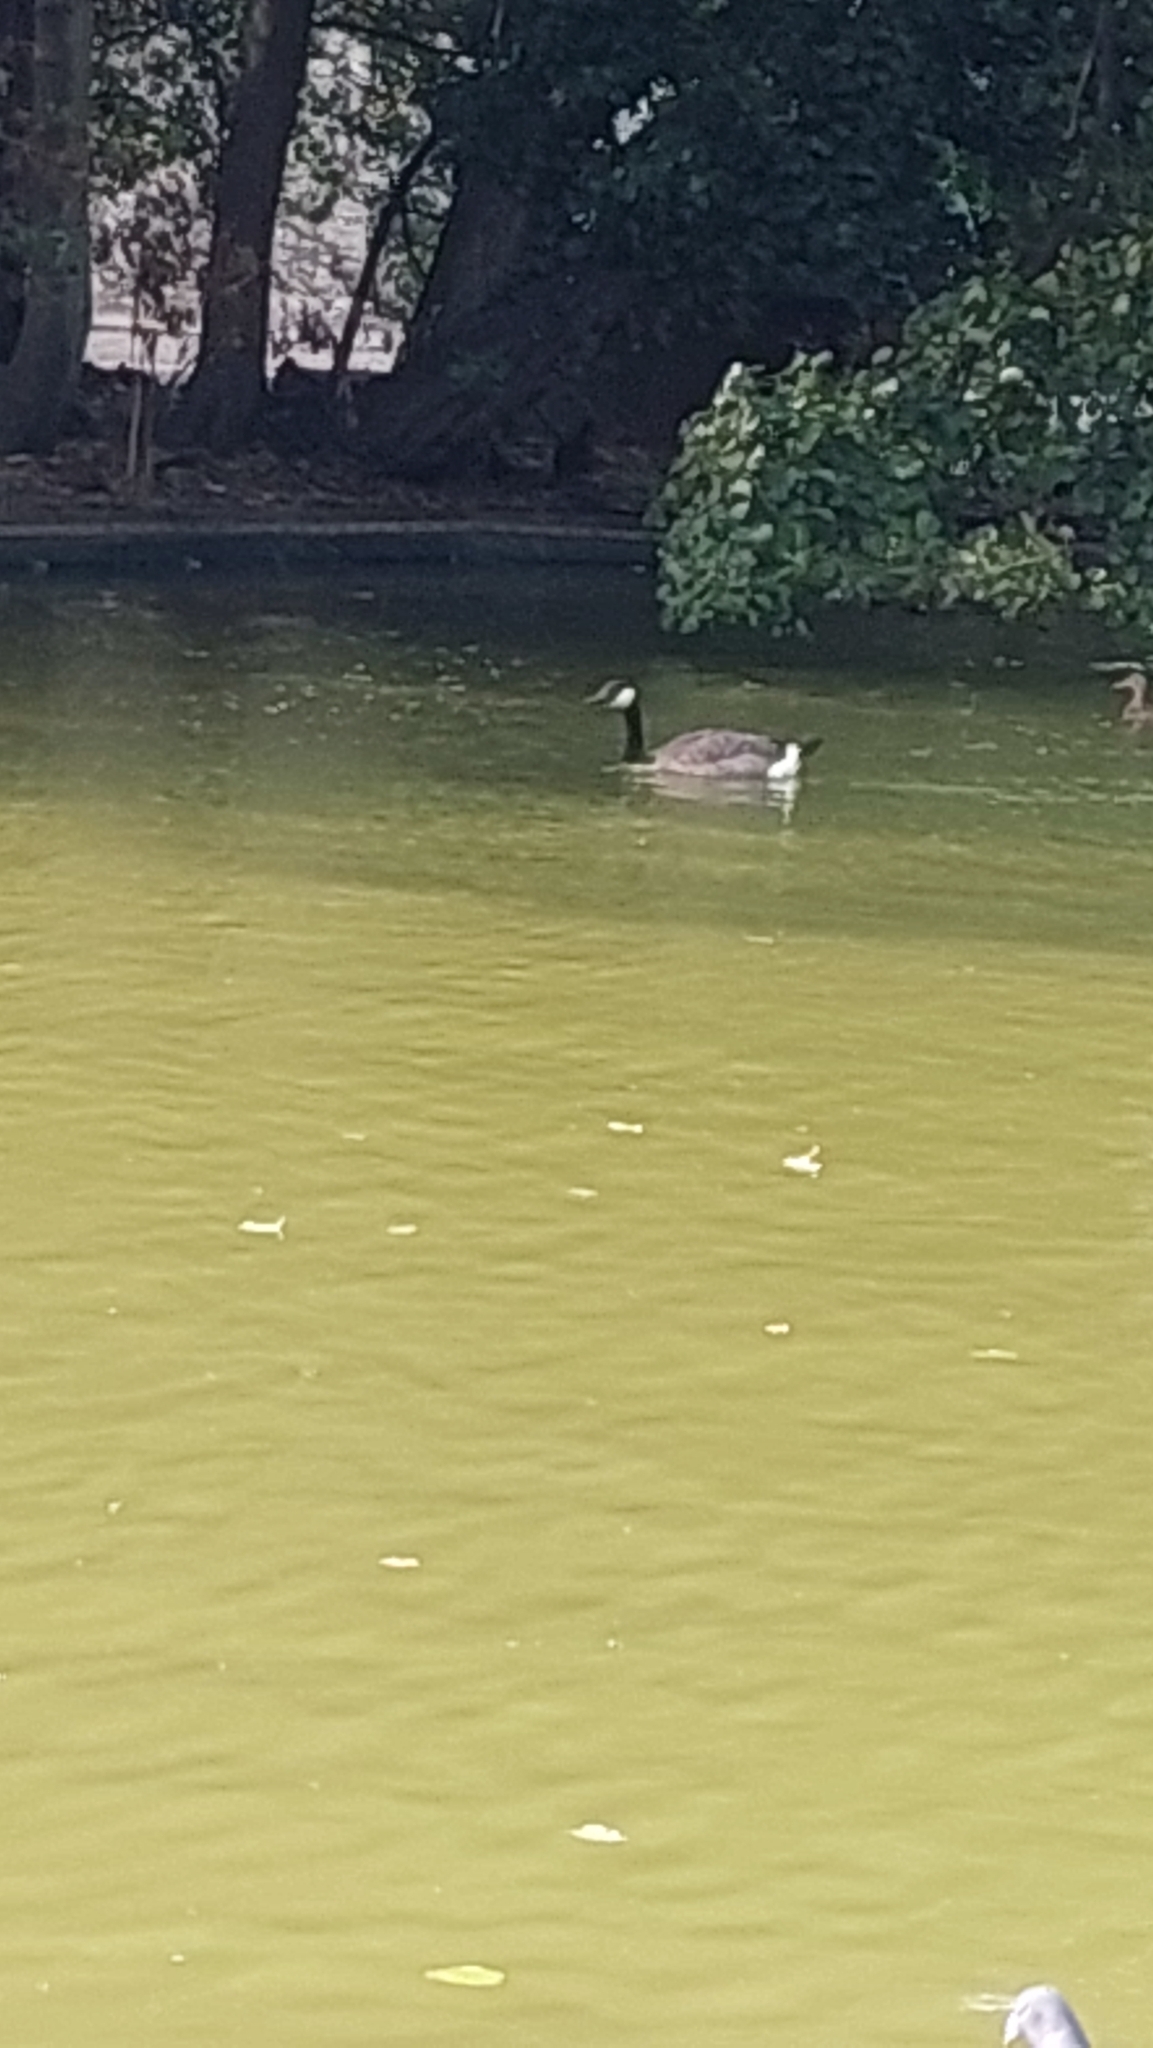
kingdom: Animalia
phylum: Chordata
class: Aves
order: Anseriformes
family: Anatidae
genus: Branta
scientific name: Branta canadensis
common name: Canada goose
